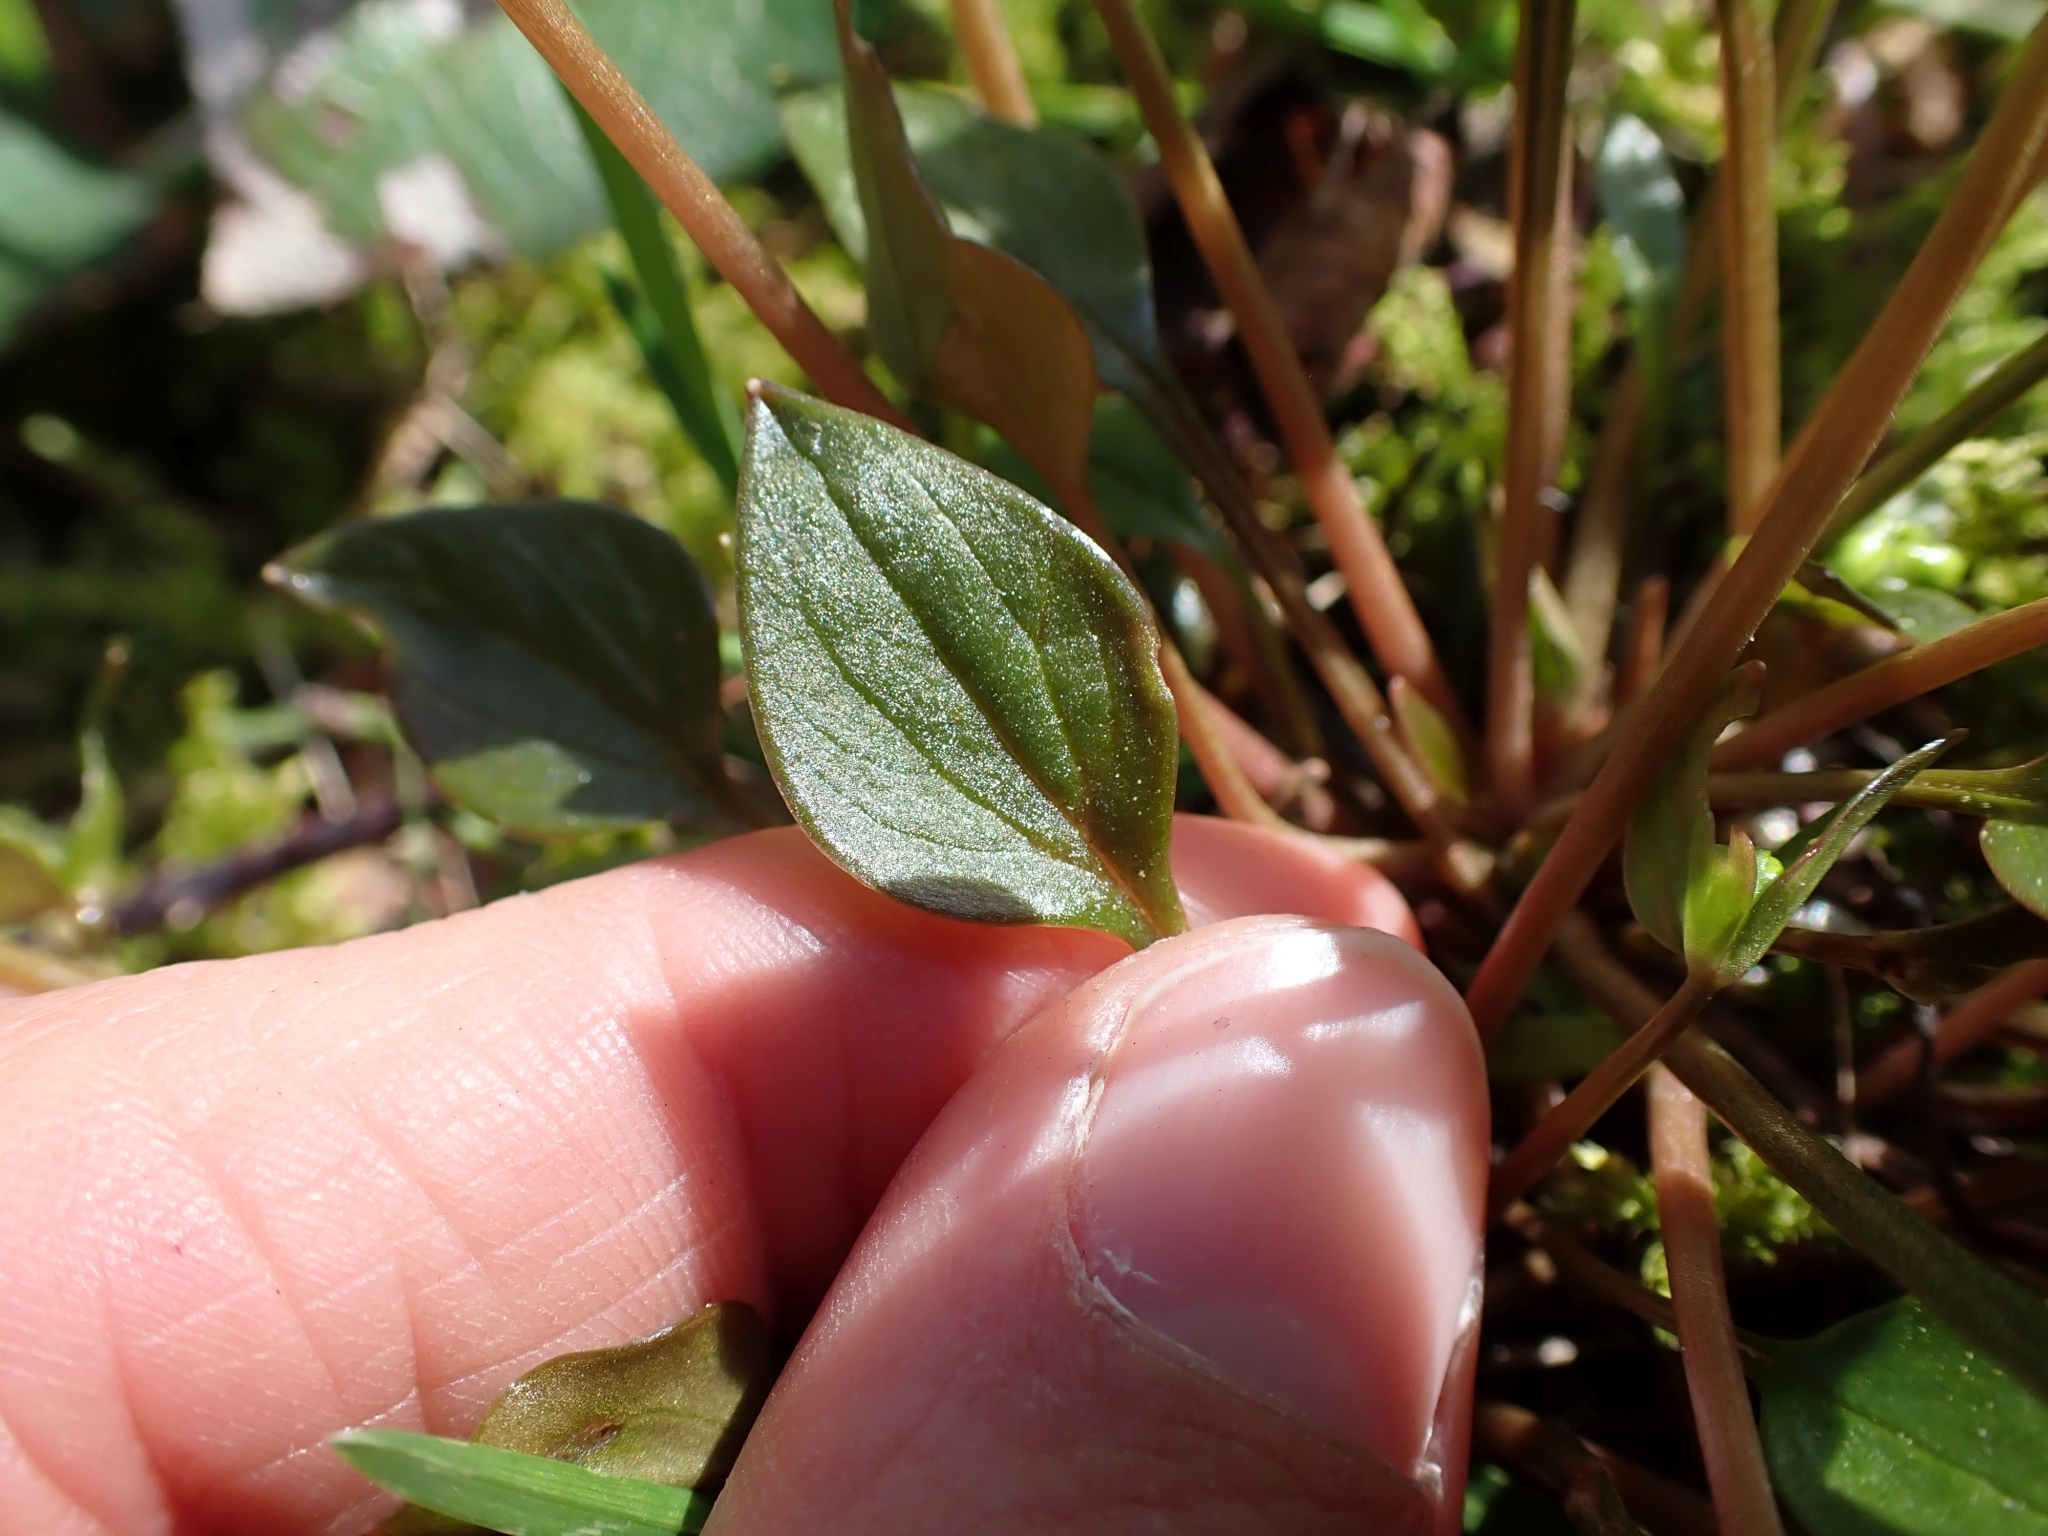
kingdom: Plantae
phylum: Tracheophyta
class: Magnoliopsida
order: Caryophyllales
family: Montiaceae
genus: Claytonia
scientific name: Claytonia sibirica
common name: Pink purslane
